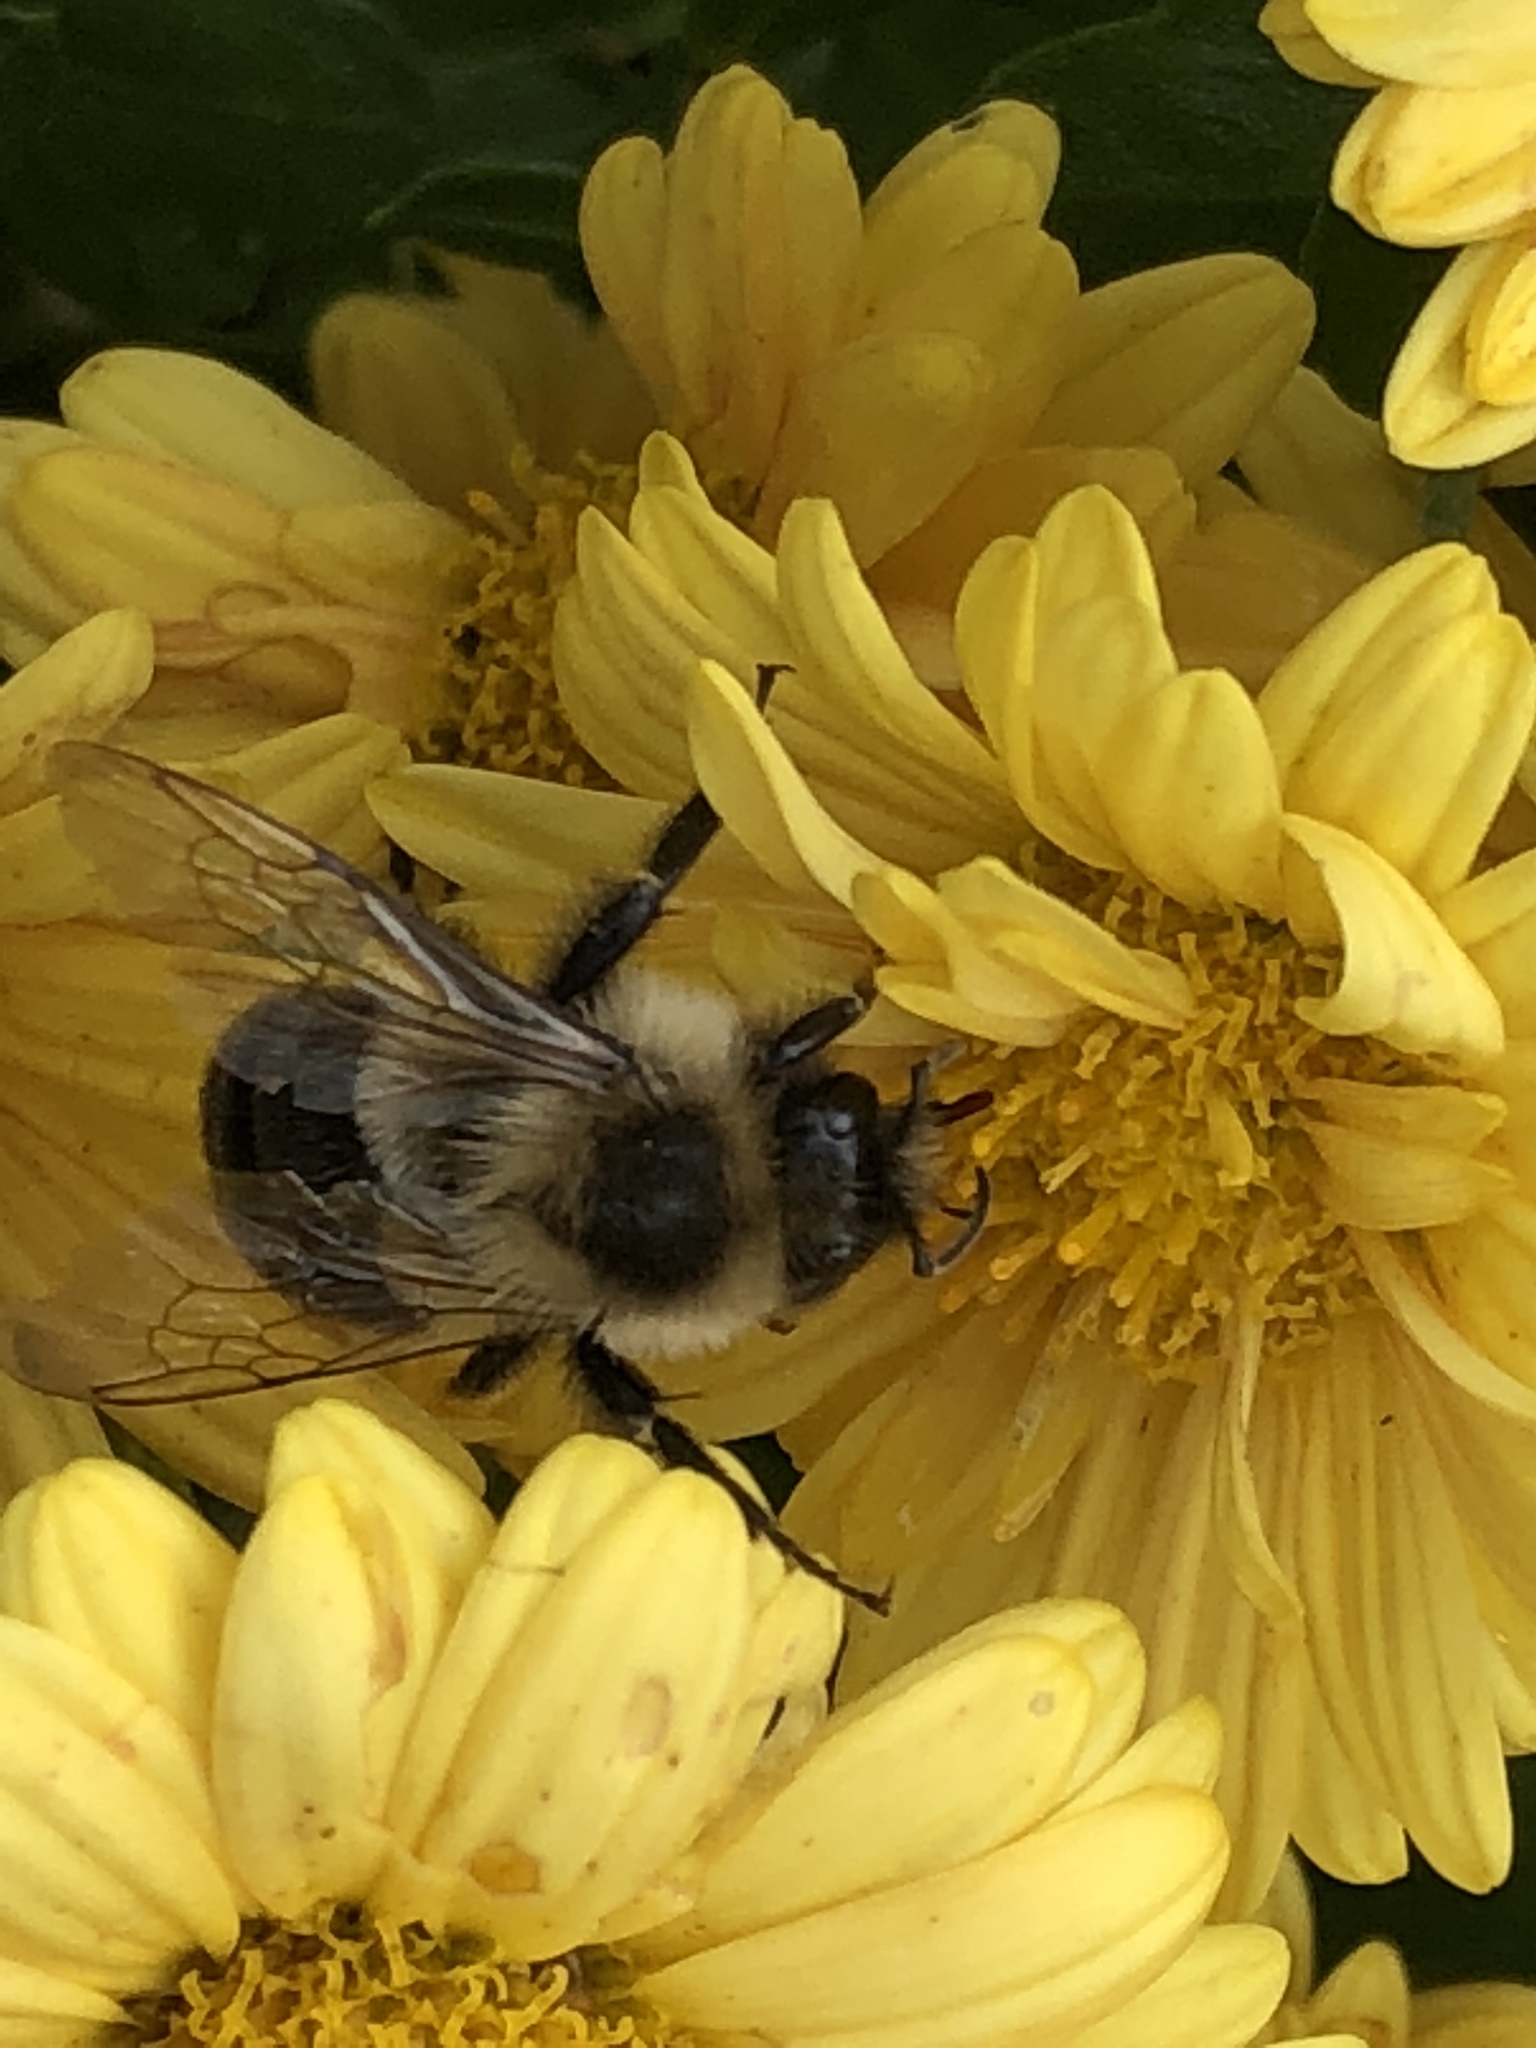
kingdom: Animalia
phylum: Arthropoda
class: Insecta
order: Hymenoptera
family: Apidae
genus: Bombus
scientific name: Bombus impatiens
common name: Common eastern bumble bee
